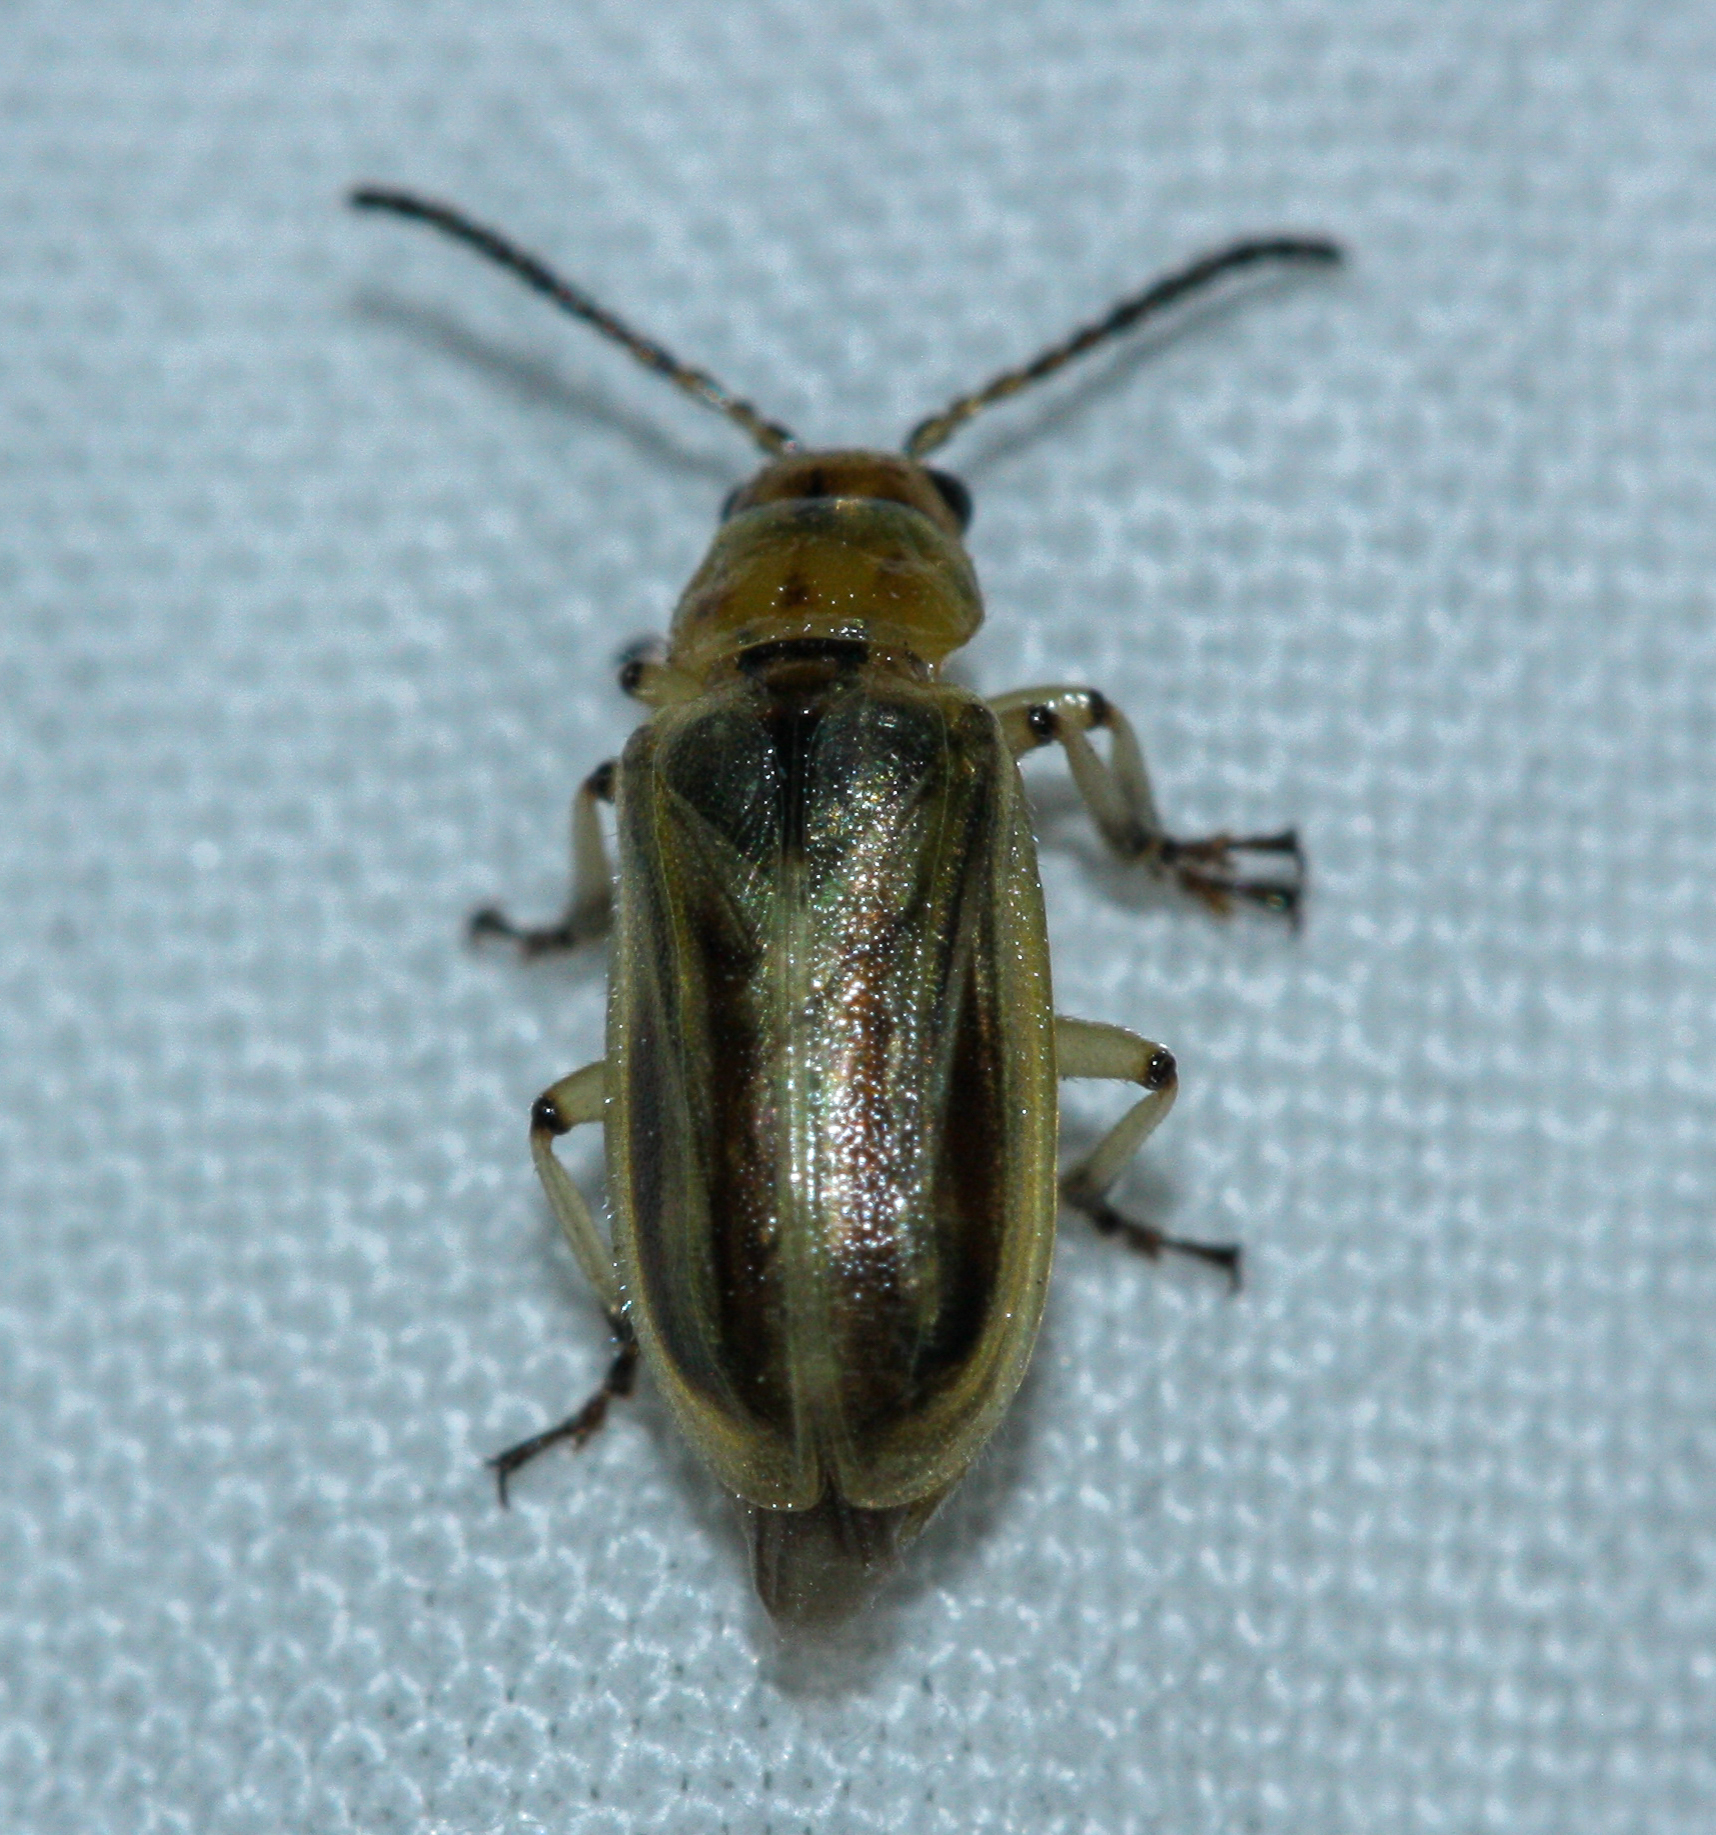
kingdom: Animalia
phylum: Arthropoda
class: Insecta
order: Coleoptera
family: Chrysomelidae
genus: Diorhabda
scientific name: Diorhabda carinulata
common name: Tamarisk leaf beetle
